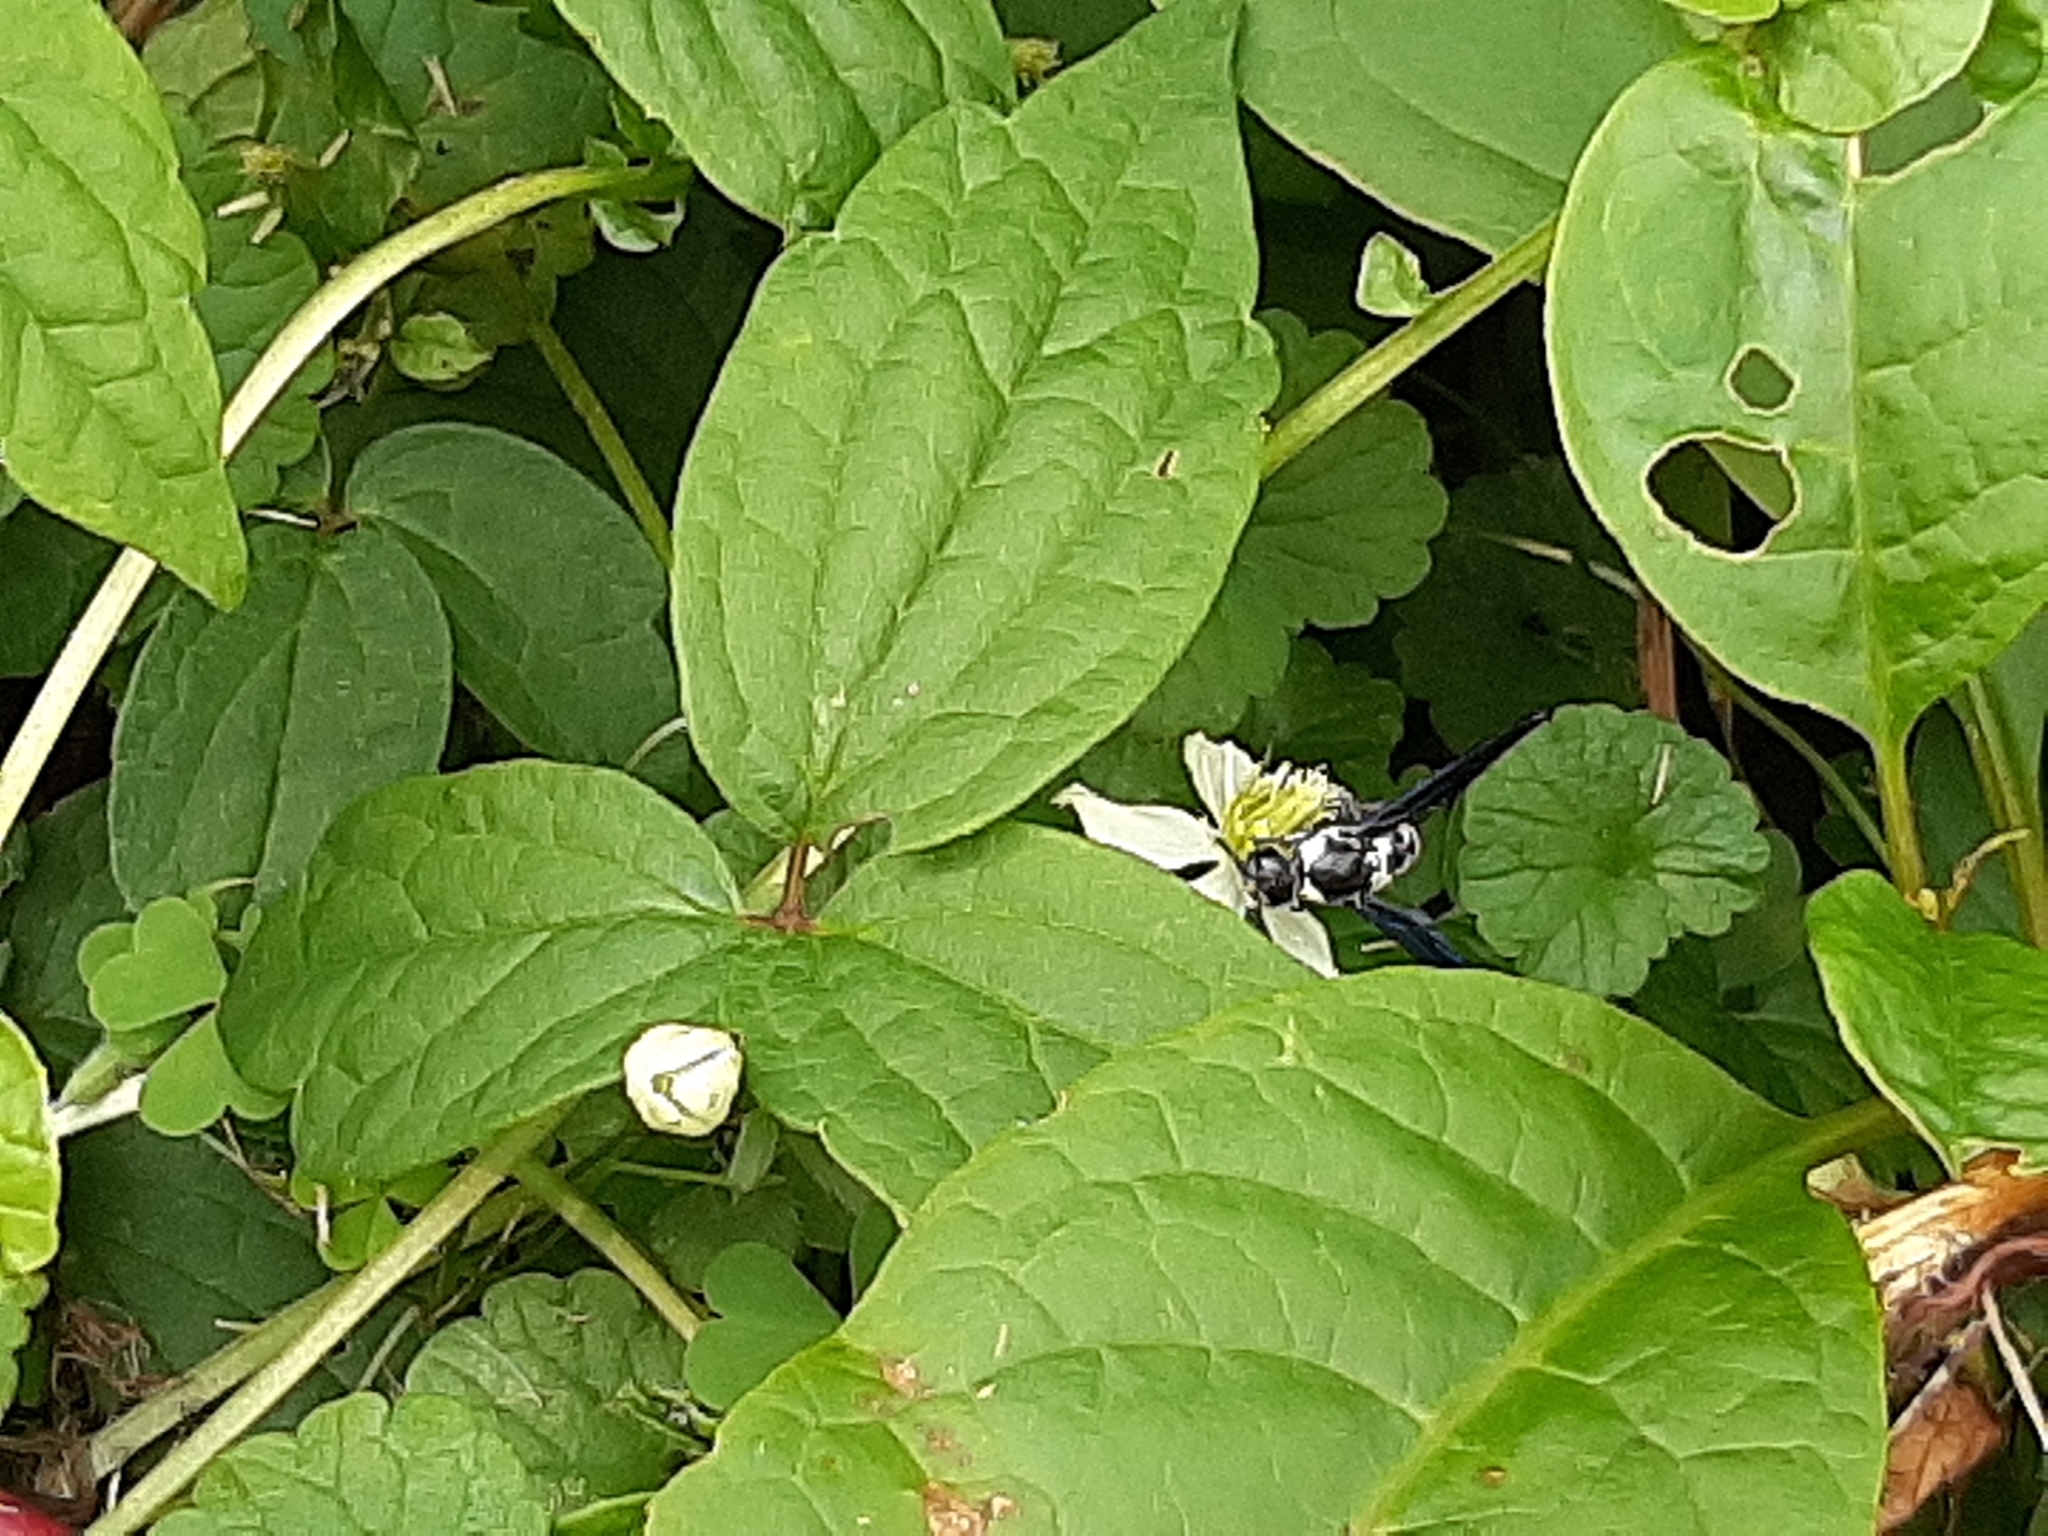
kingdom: Animalia
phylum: Arthropoda
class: Insecta
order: Hymenoptera
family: Eumenidae
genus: Pseudodynerus
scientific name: Pseudodynerus quadrisectus
